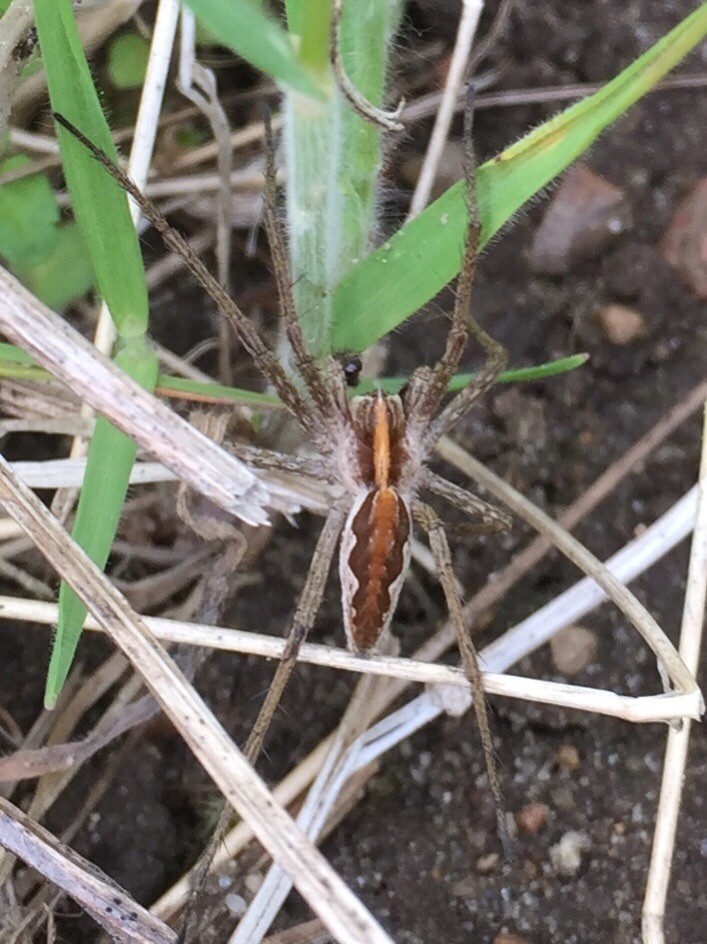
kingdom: Animalia
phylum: Arthropoda
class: Arachnida
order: Araneae
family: Pisauridae
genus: Pisaura
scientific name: Pisaura mirabilis
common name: Tent spider
